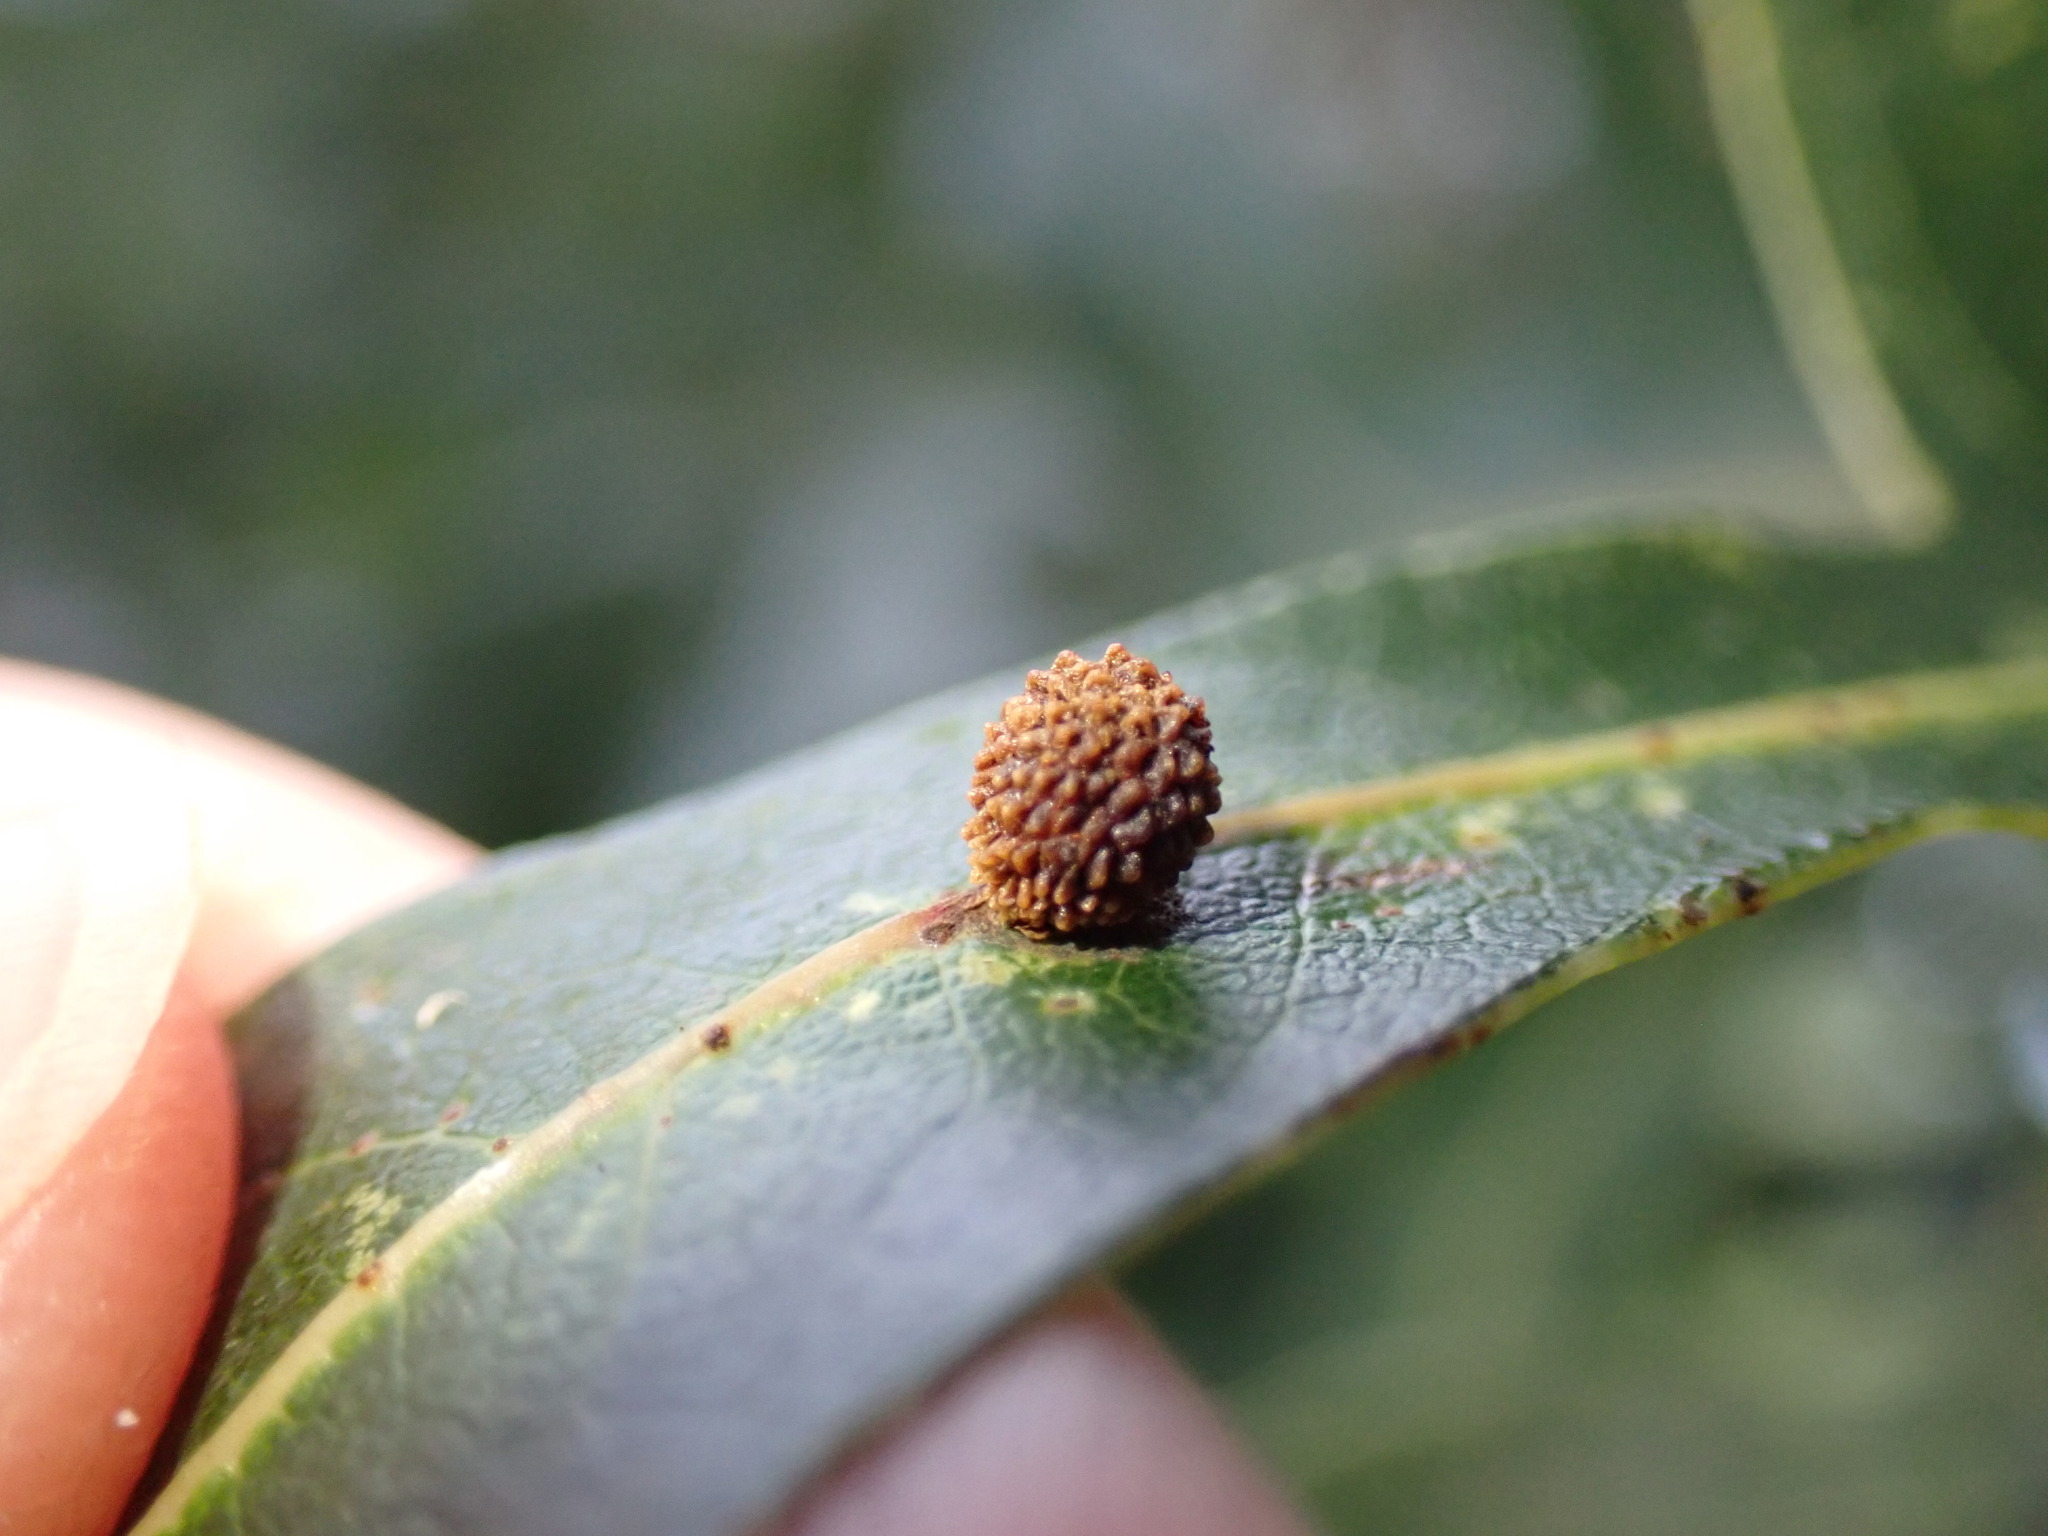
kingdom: Animalia
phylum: Arthropoda
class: Insecta
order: Hymenoptera
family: Cynipidae
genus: Acraspis
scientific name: Acraspis
